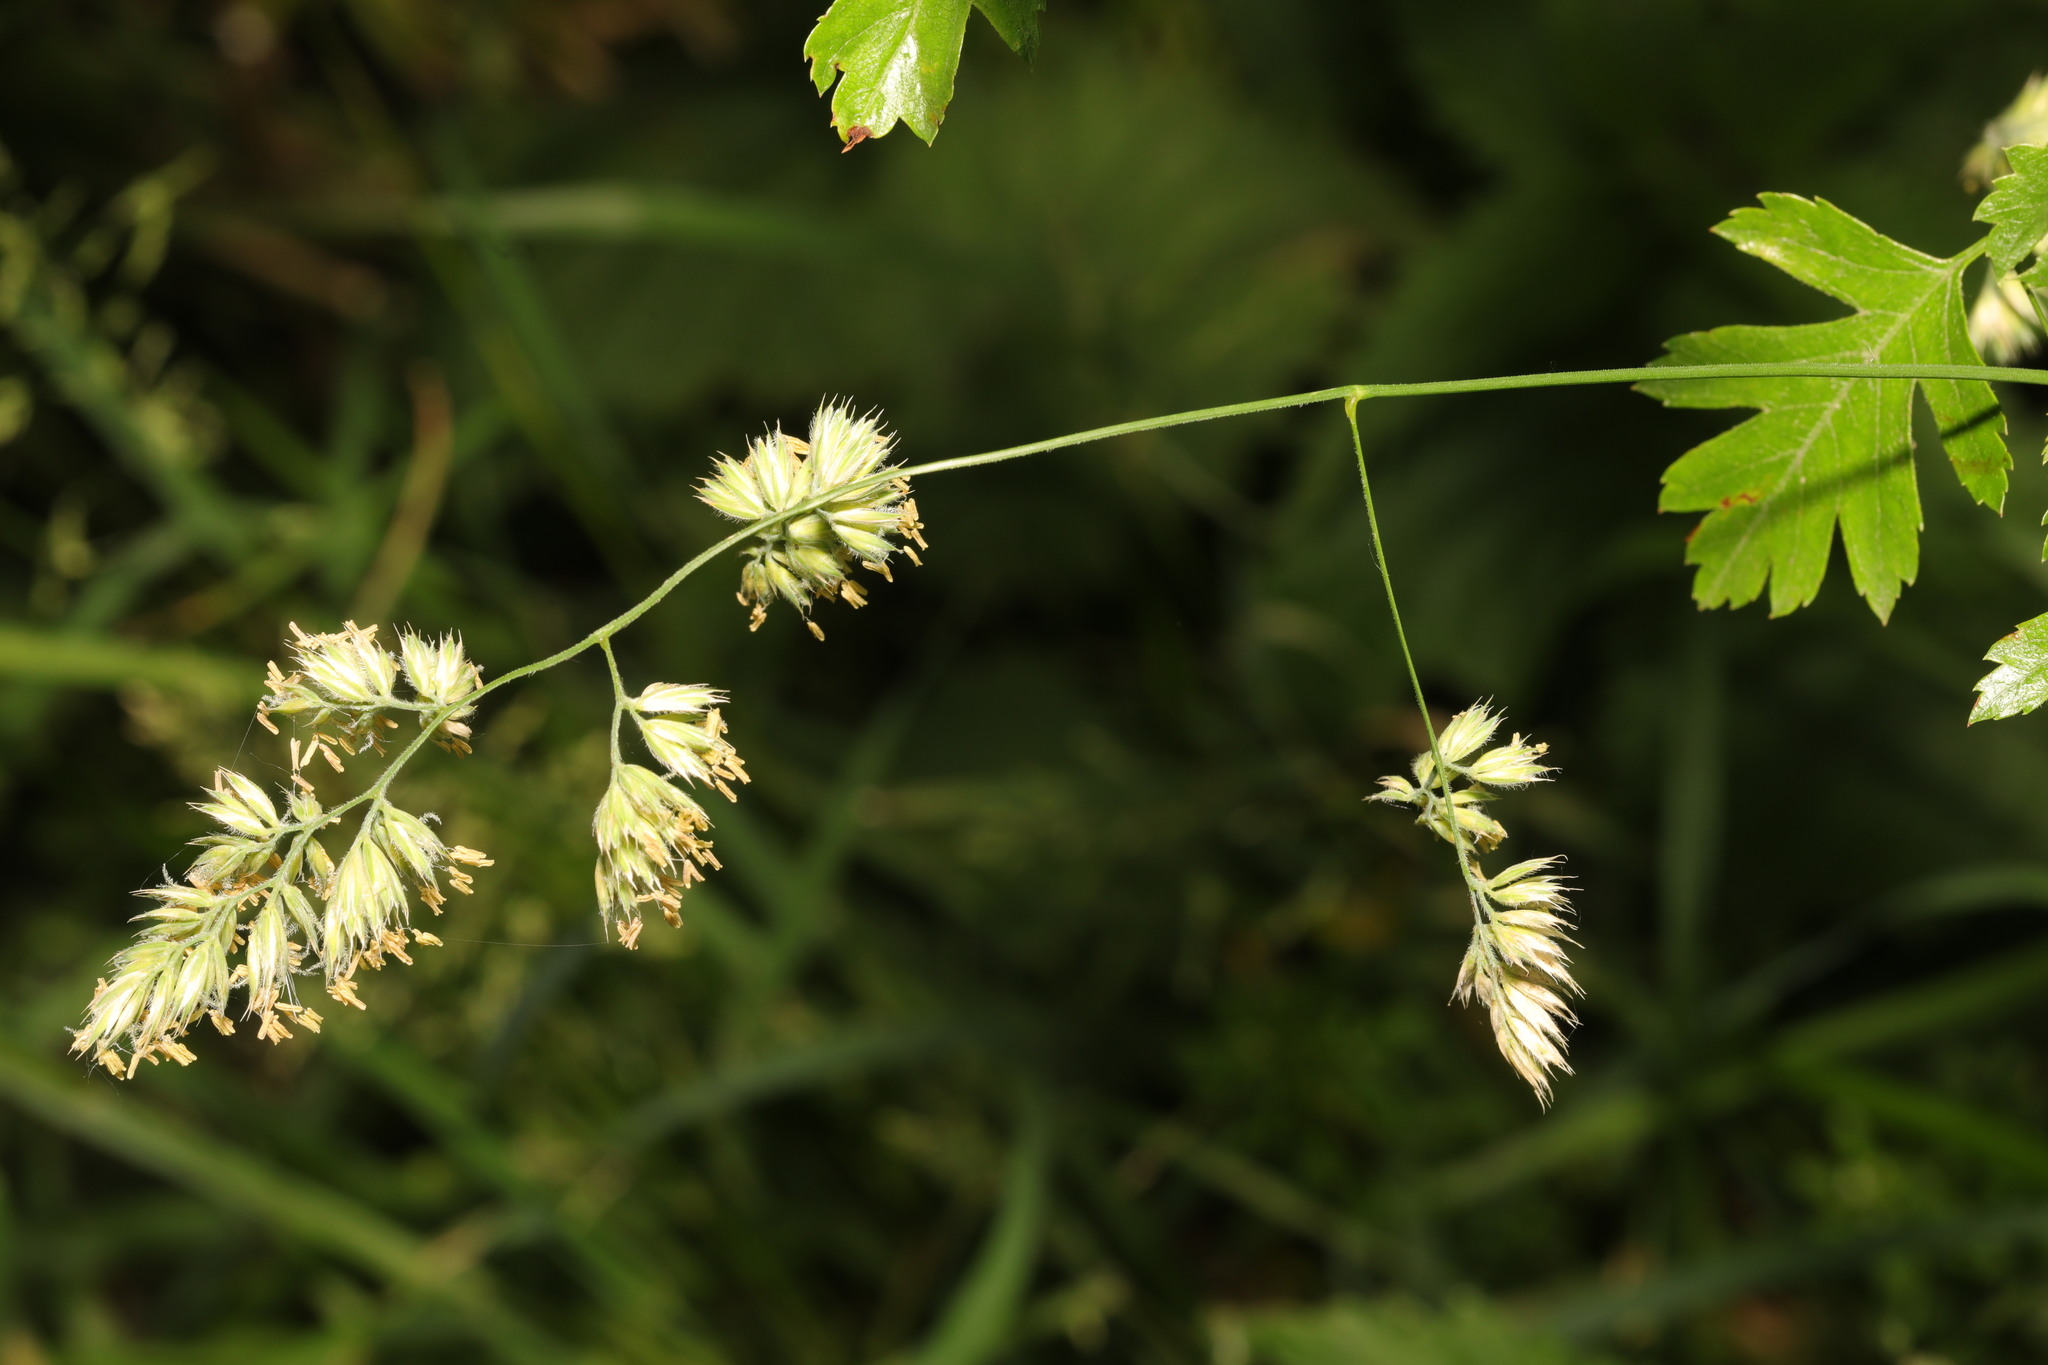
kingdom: Plantae
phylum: Tracheophyta
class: Liliopsida
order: Poales
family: Poaceae
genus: Dactylis
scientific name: Dactylis glomerata
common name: Orchardgrass
